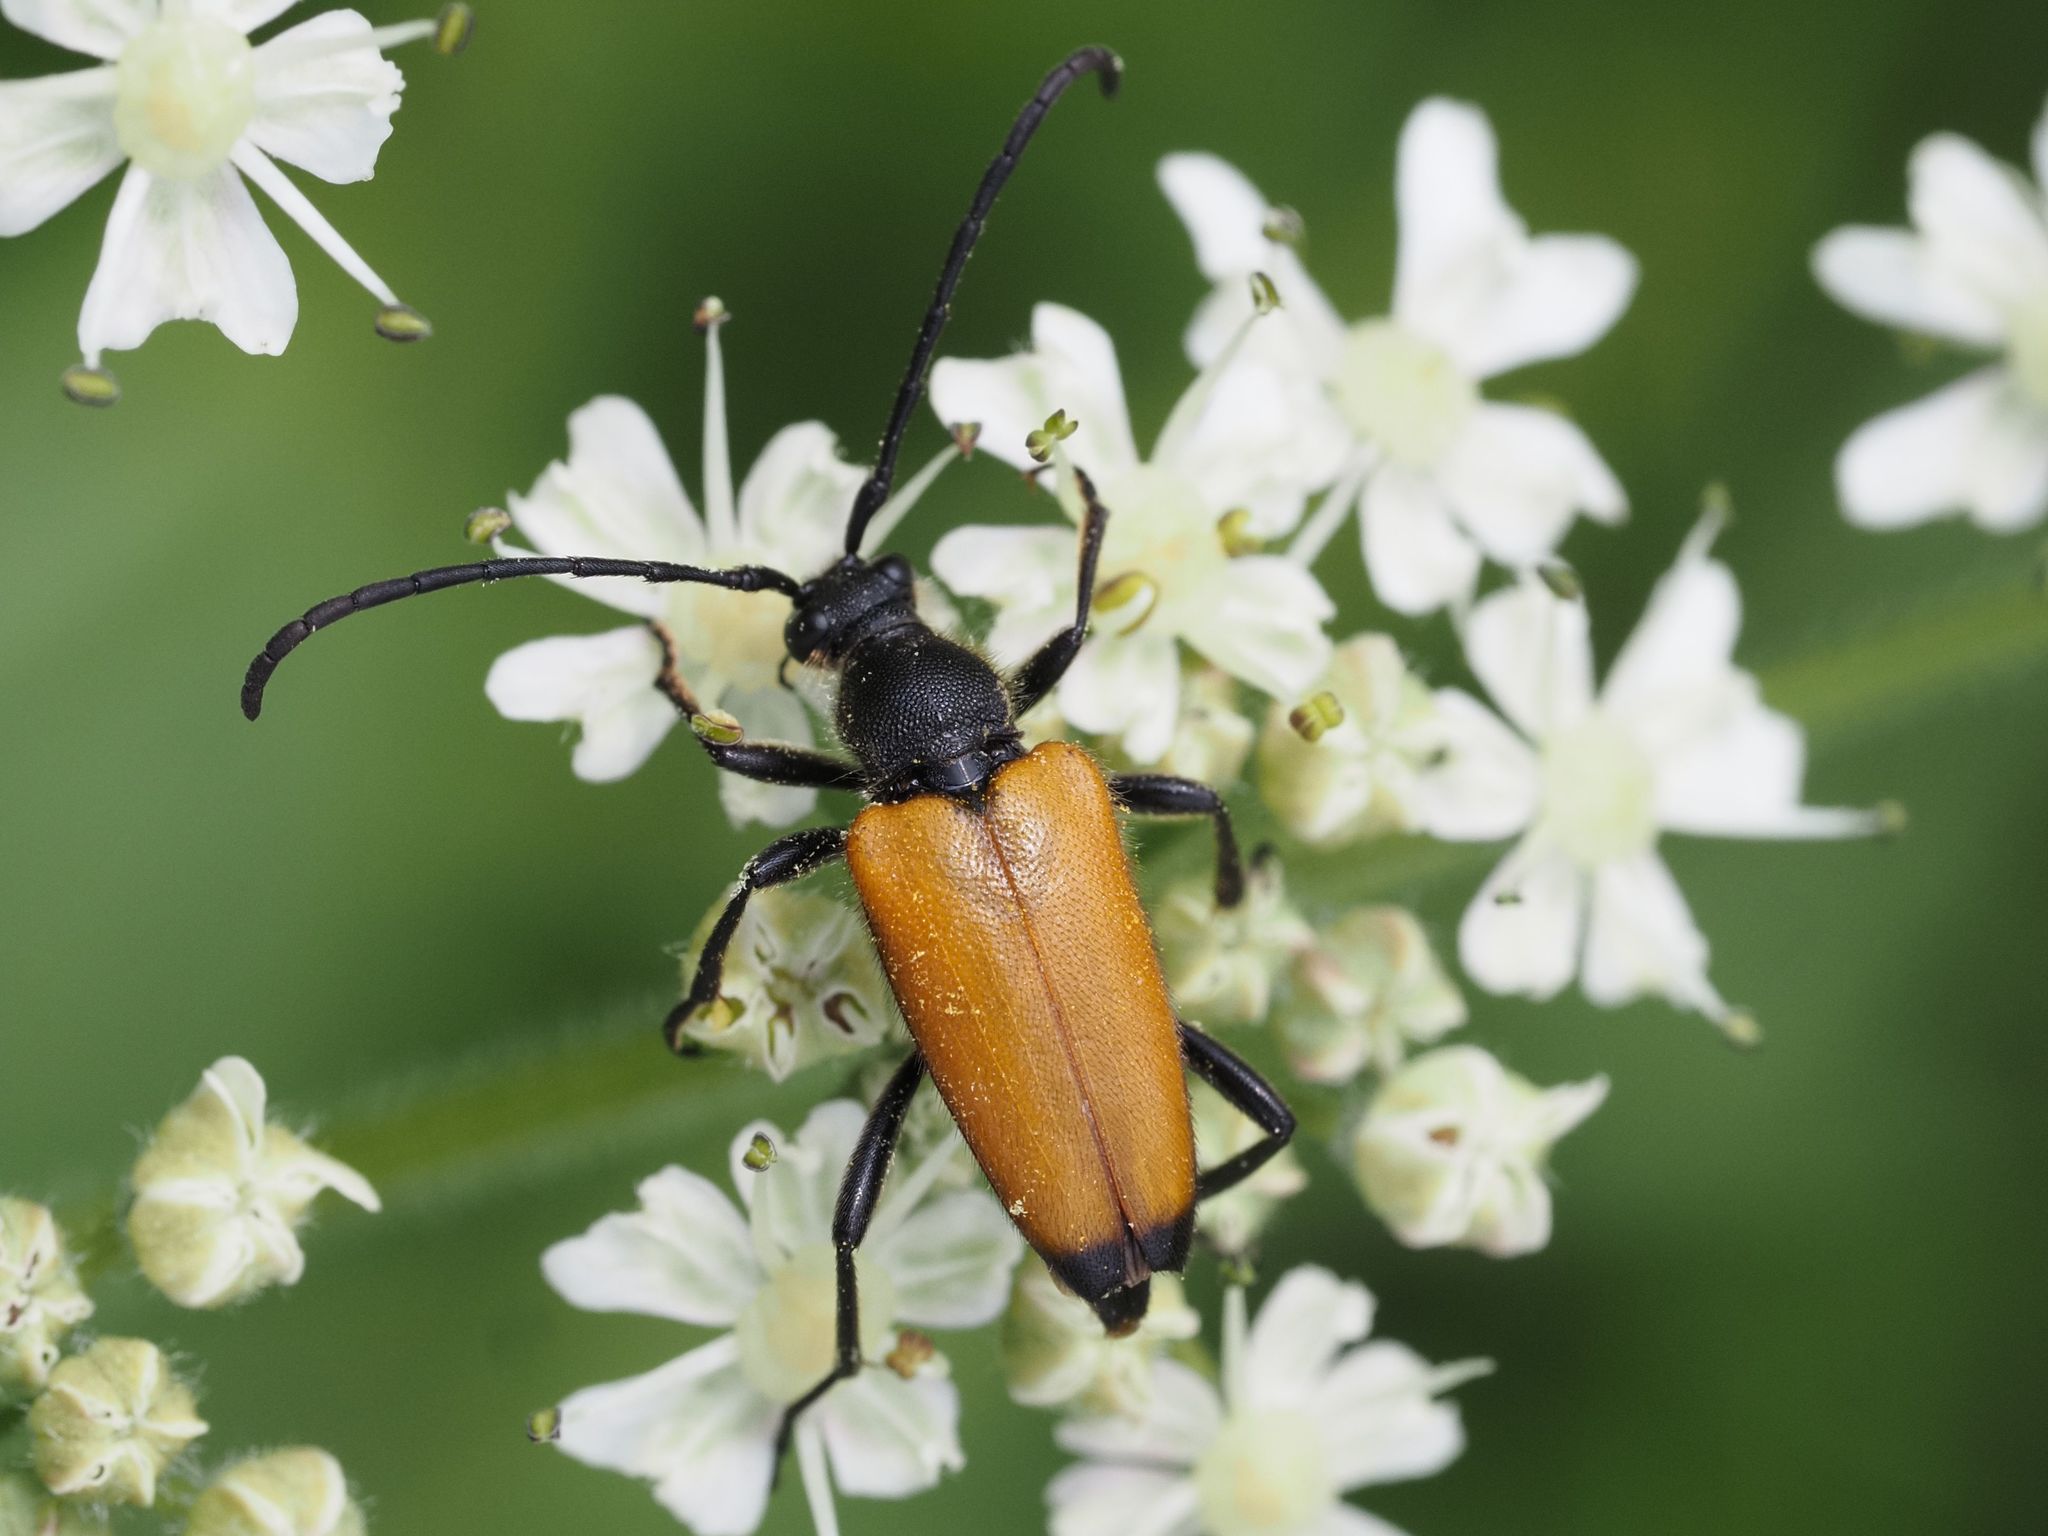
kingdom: Animalia
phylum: Arthropoda
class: Insecta
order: Coleoptera
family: Cerambycidae
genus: Paracorymbia
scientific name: Paracorymbia fulva
